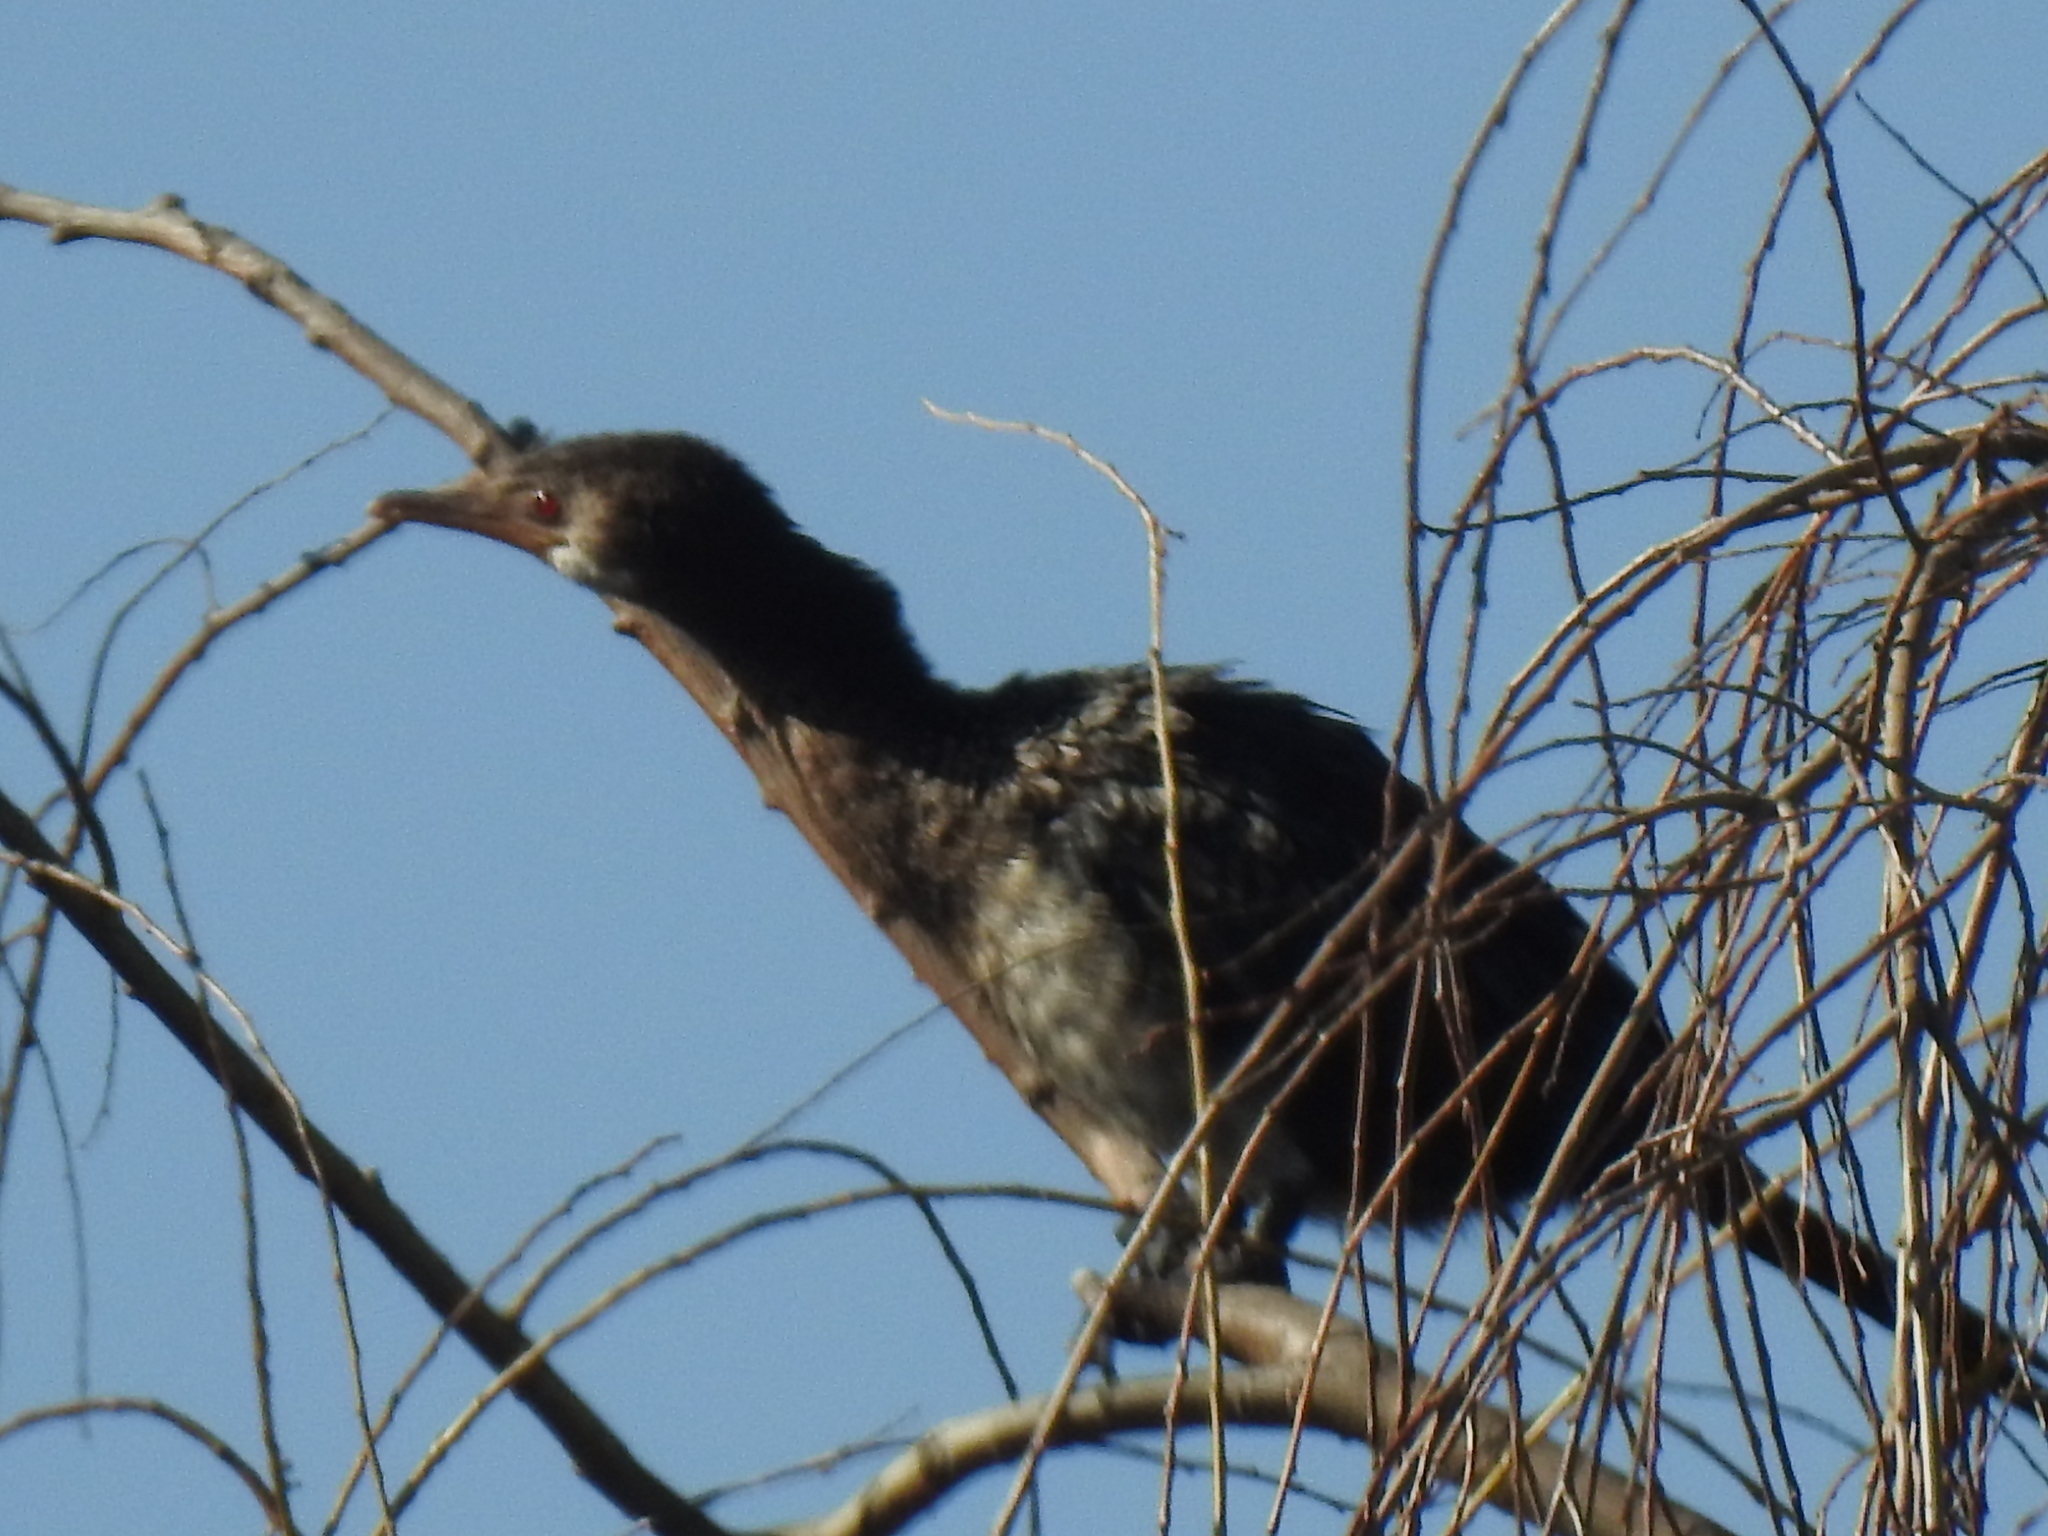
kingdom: Animalia
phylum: Chordata
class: Aves
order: Suliformes
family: Phalacrocoracidae
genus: Microcarbo
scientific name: Microcarbo africanus
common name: Long-tailed cormorant
